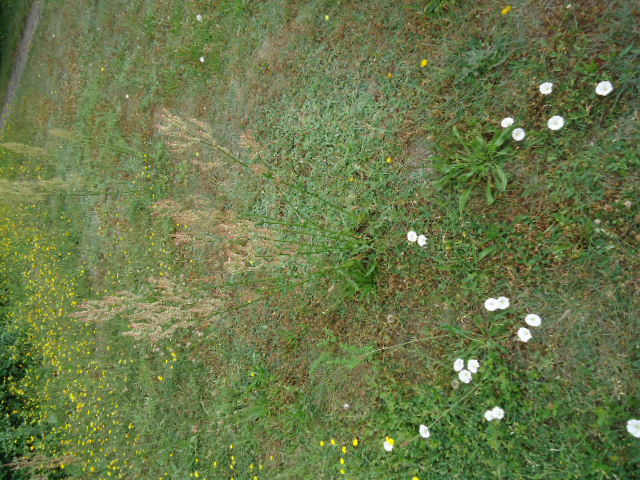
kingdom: Plantae
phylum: Tracheophyta
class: Magnoliopsida
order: Caryophyllales
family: Polygonaceae
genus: Rumex
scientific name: Rumex thyrsiflorus
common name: Garden sorrel
